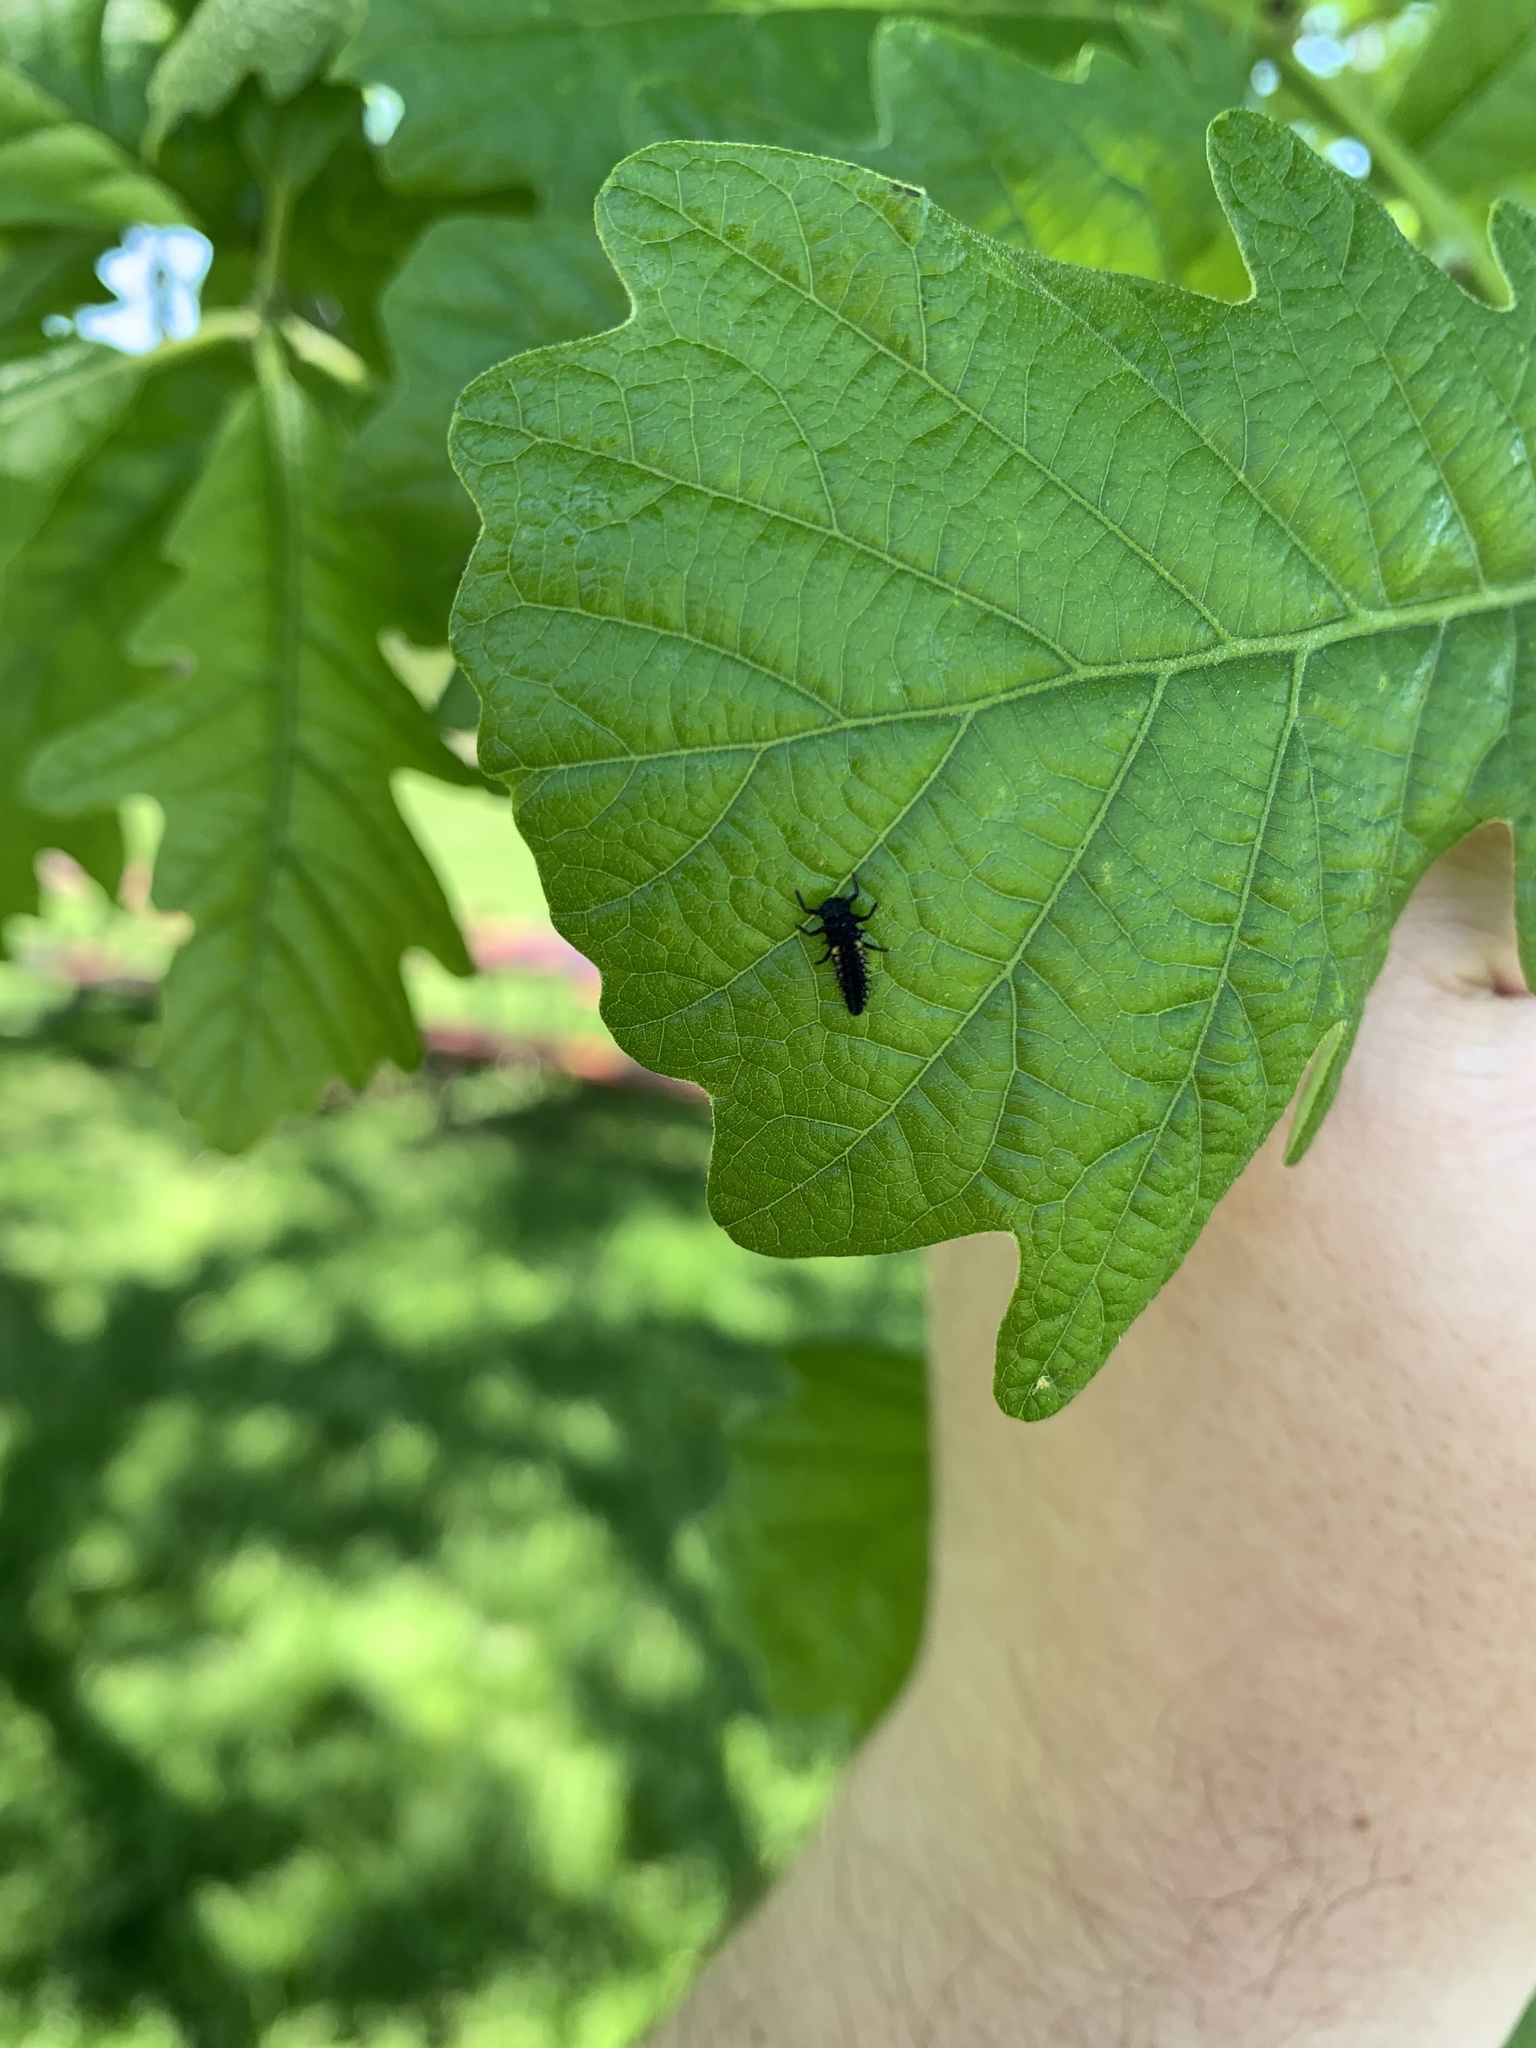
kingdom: Animalia
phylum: Arthropoda
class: Insecta
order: Coleoptera
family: Coccinellidae
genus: Harmonia
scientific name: Harmonia axyridis
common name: Harlequin ladybird
